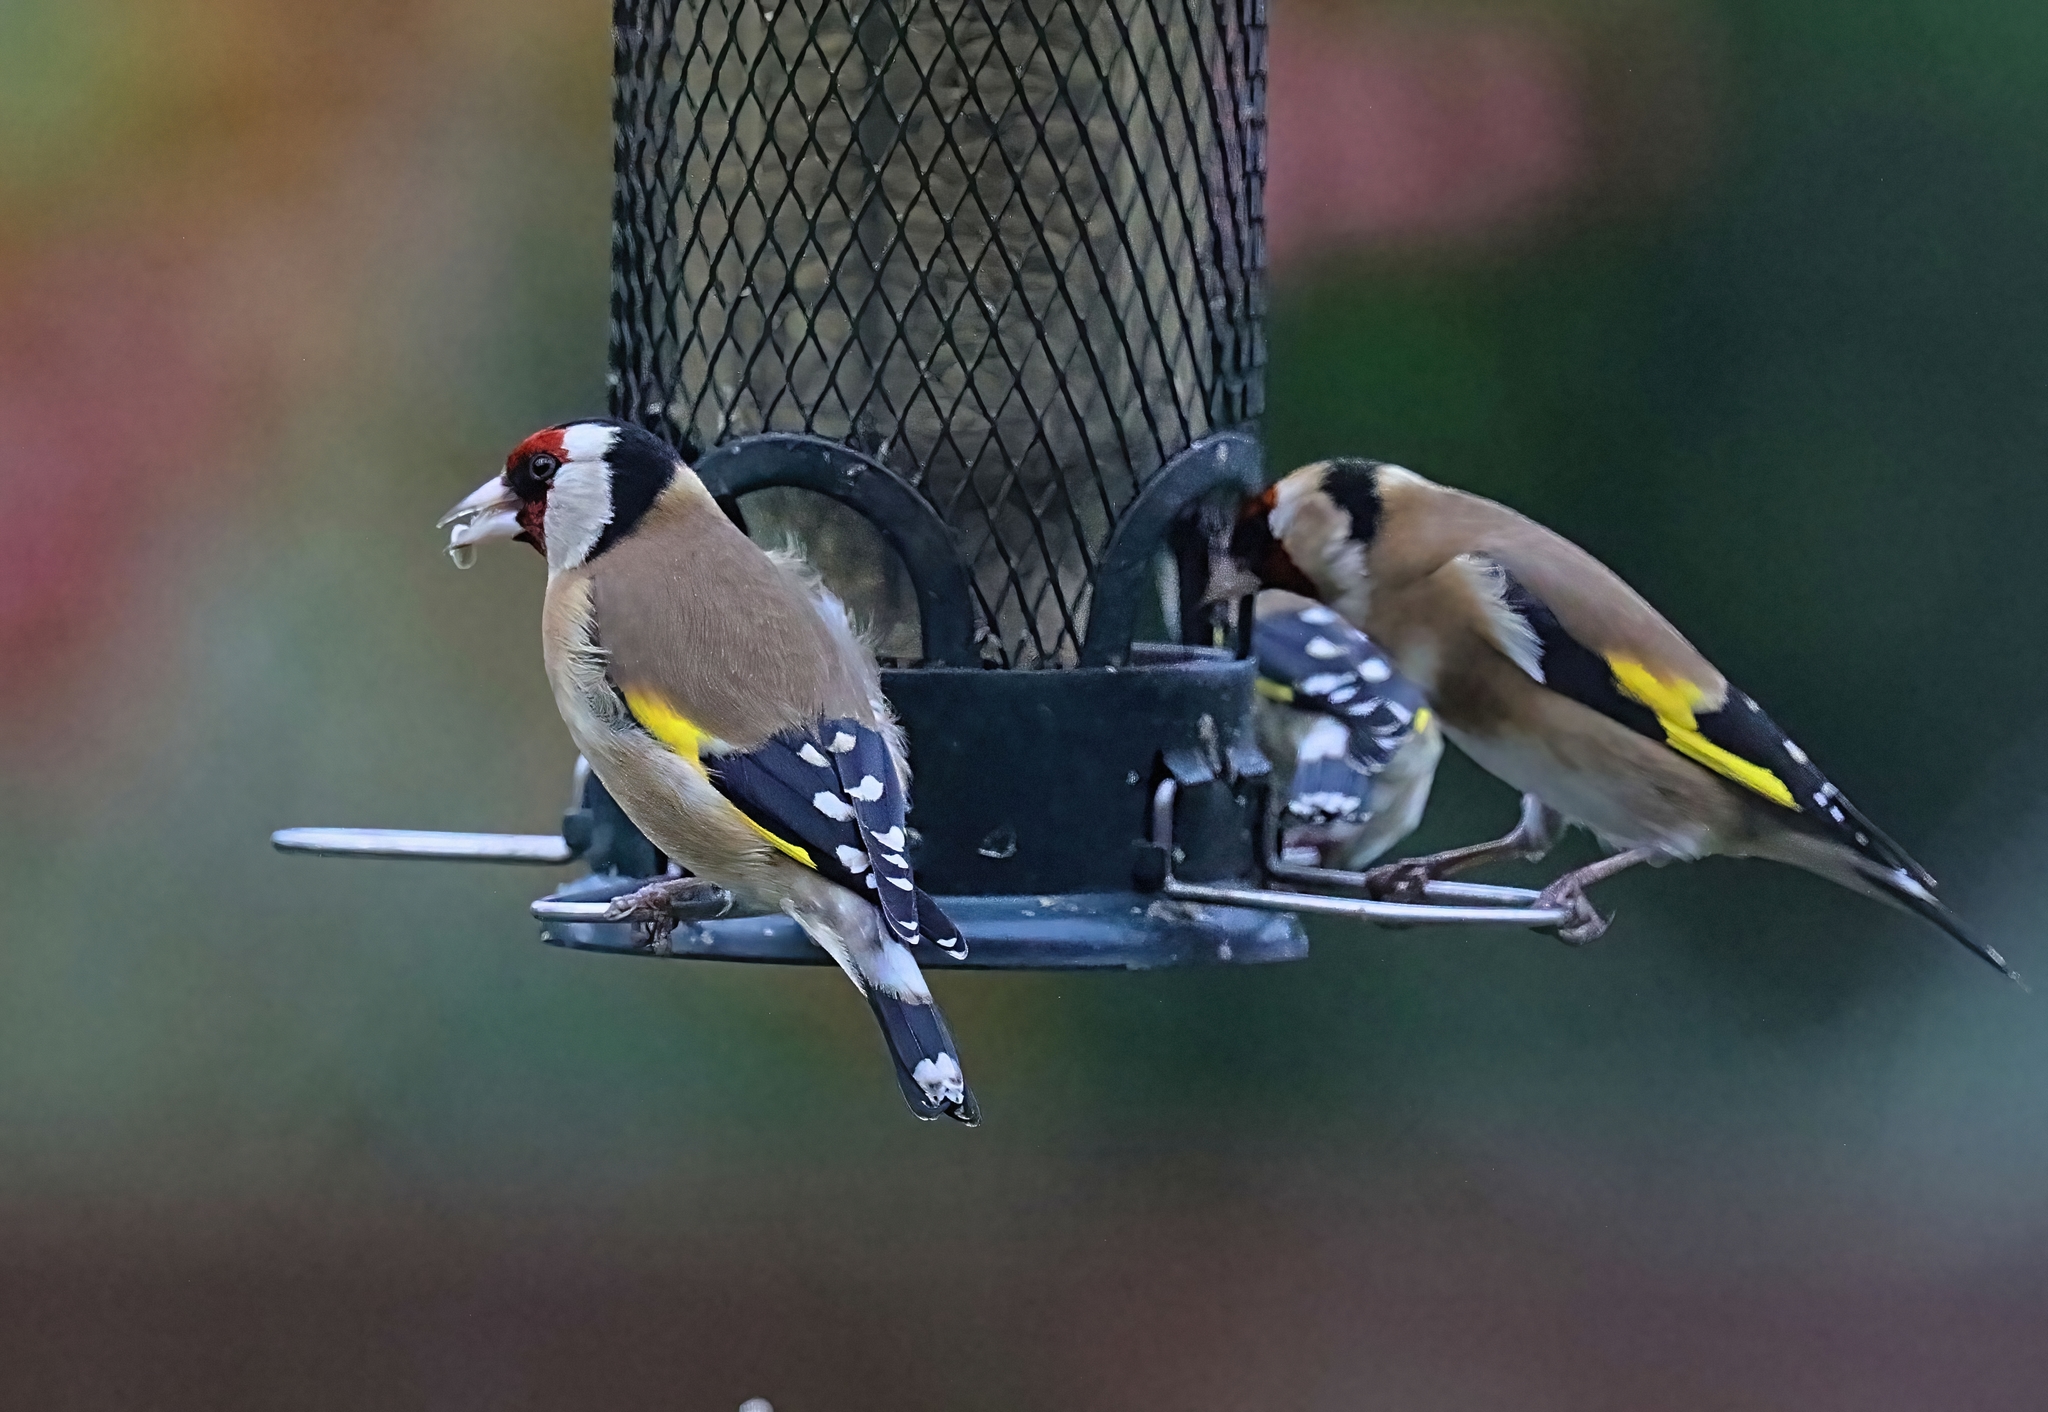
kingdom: Animalia
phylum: Chordata
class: Aves
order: Passeriformes
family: Fringillidae
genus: Carduelis
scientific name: Carduelis carduelis
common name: European goldfinch
